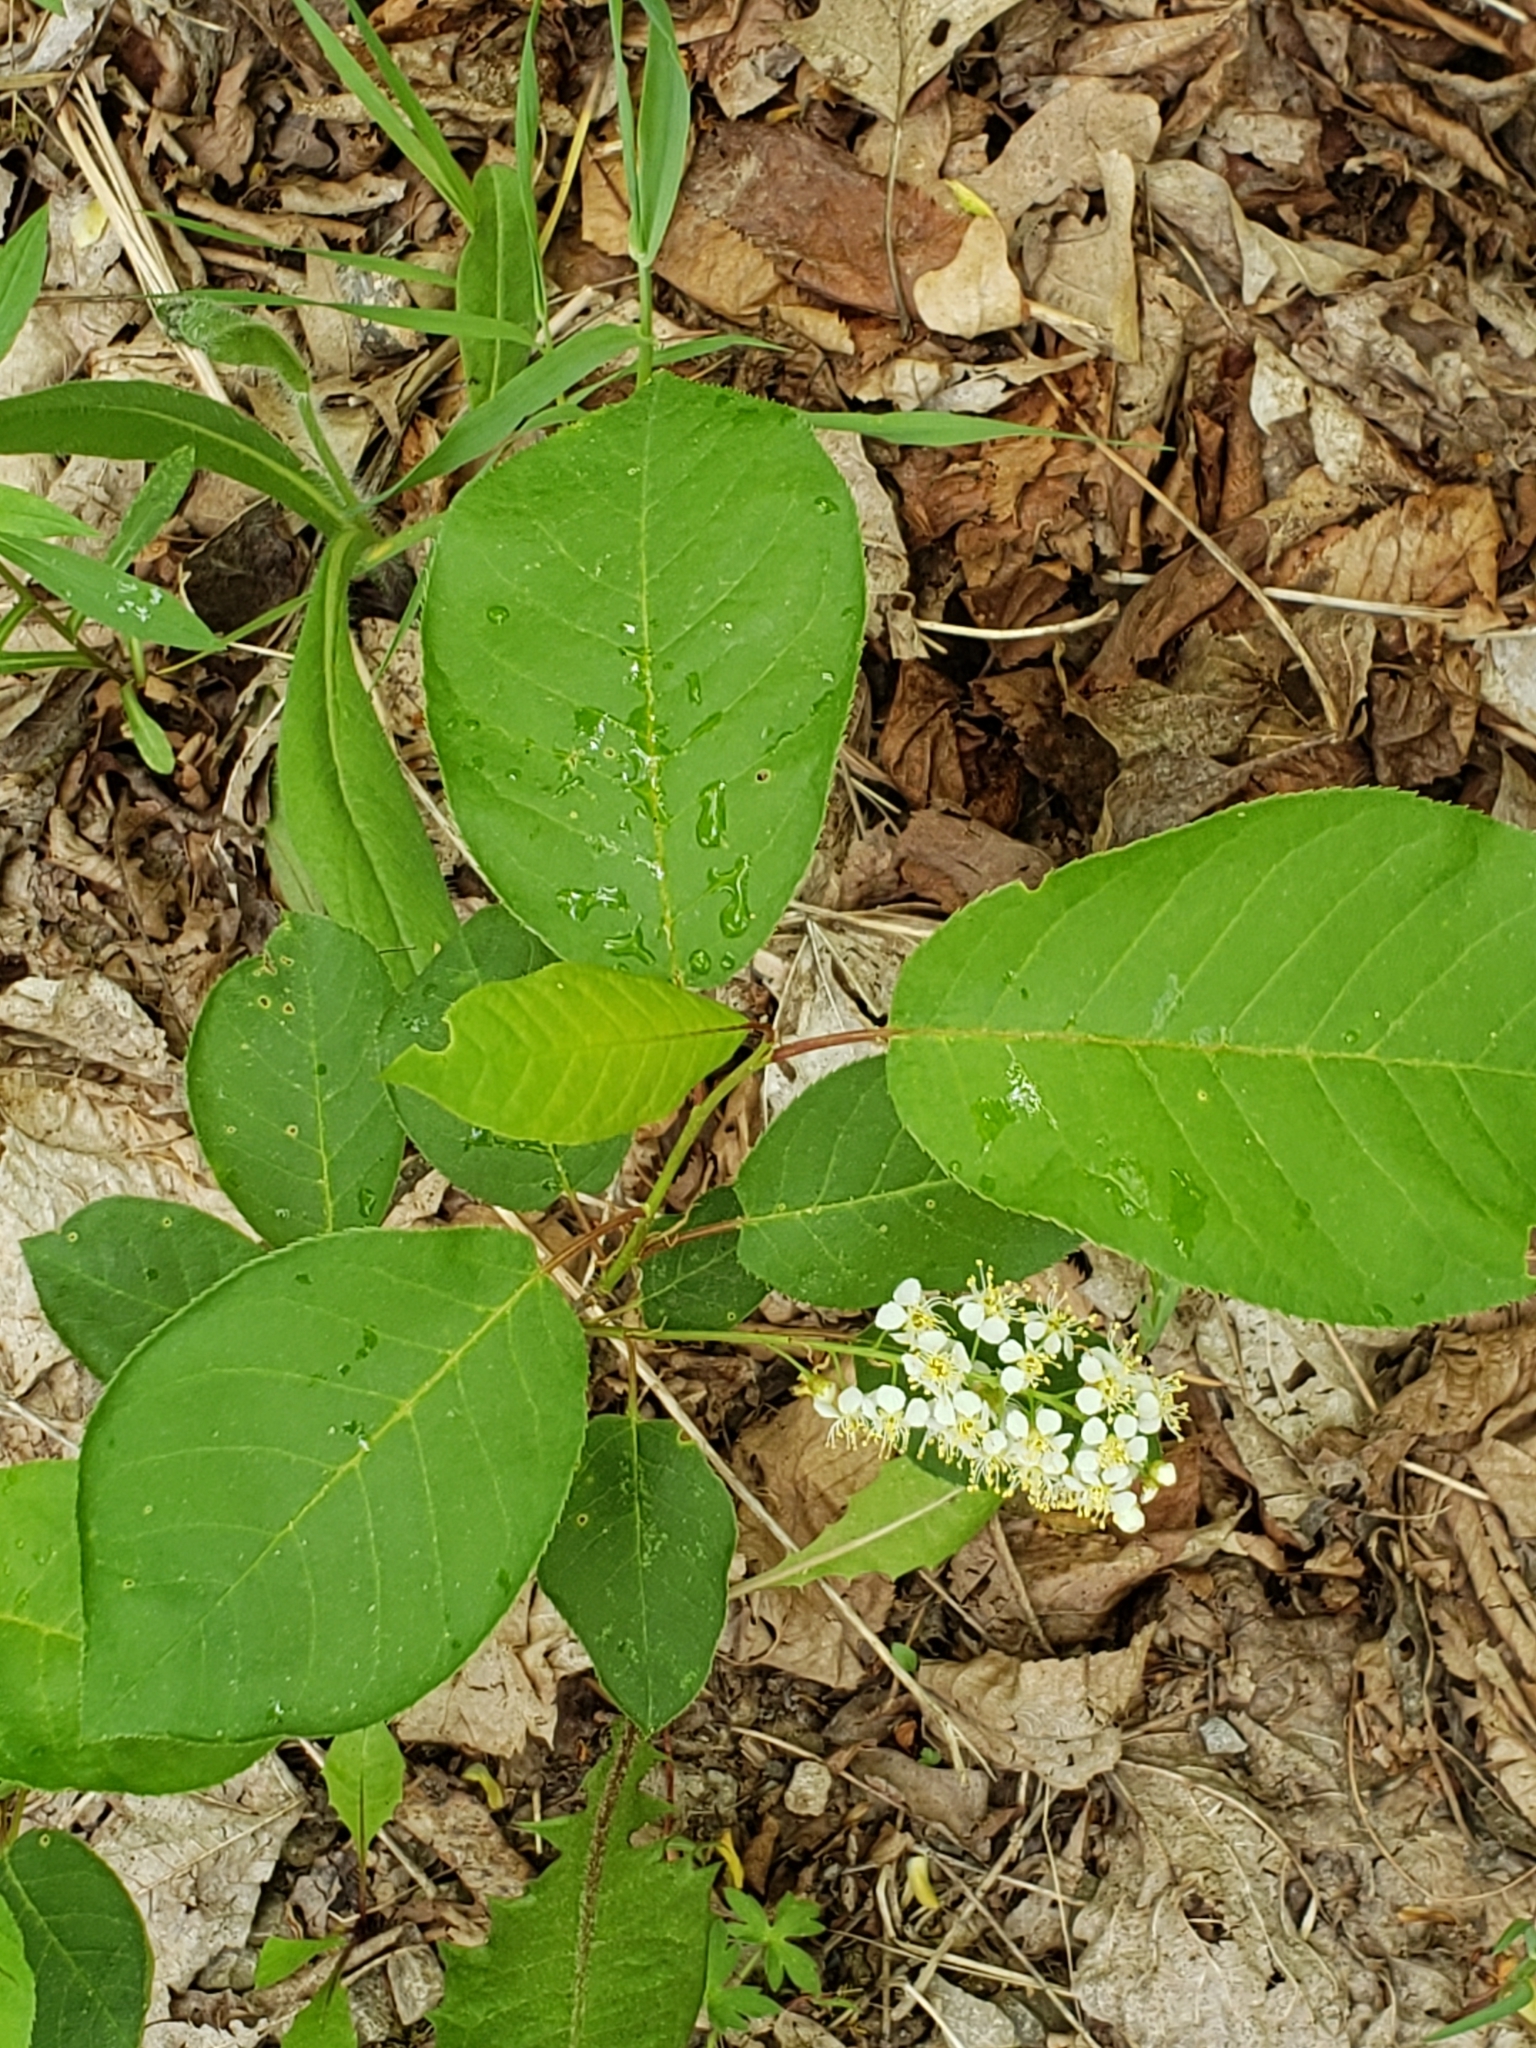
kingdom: Plantae
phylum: Tracheophyta
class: Magnoliopsida
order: Rosales
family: Rosaceae
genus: Prunus
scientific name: Prunus virginiana
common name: Chokecherry
